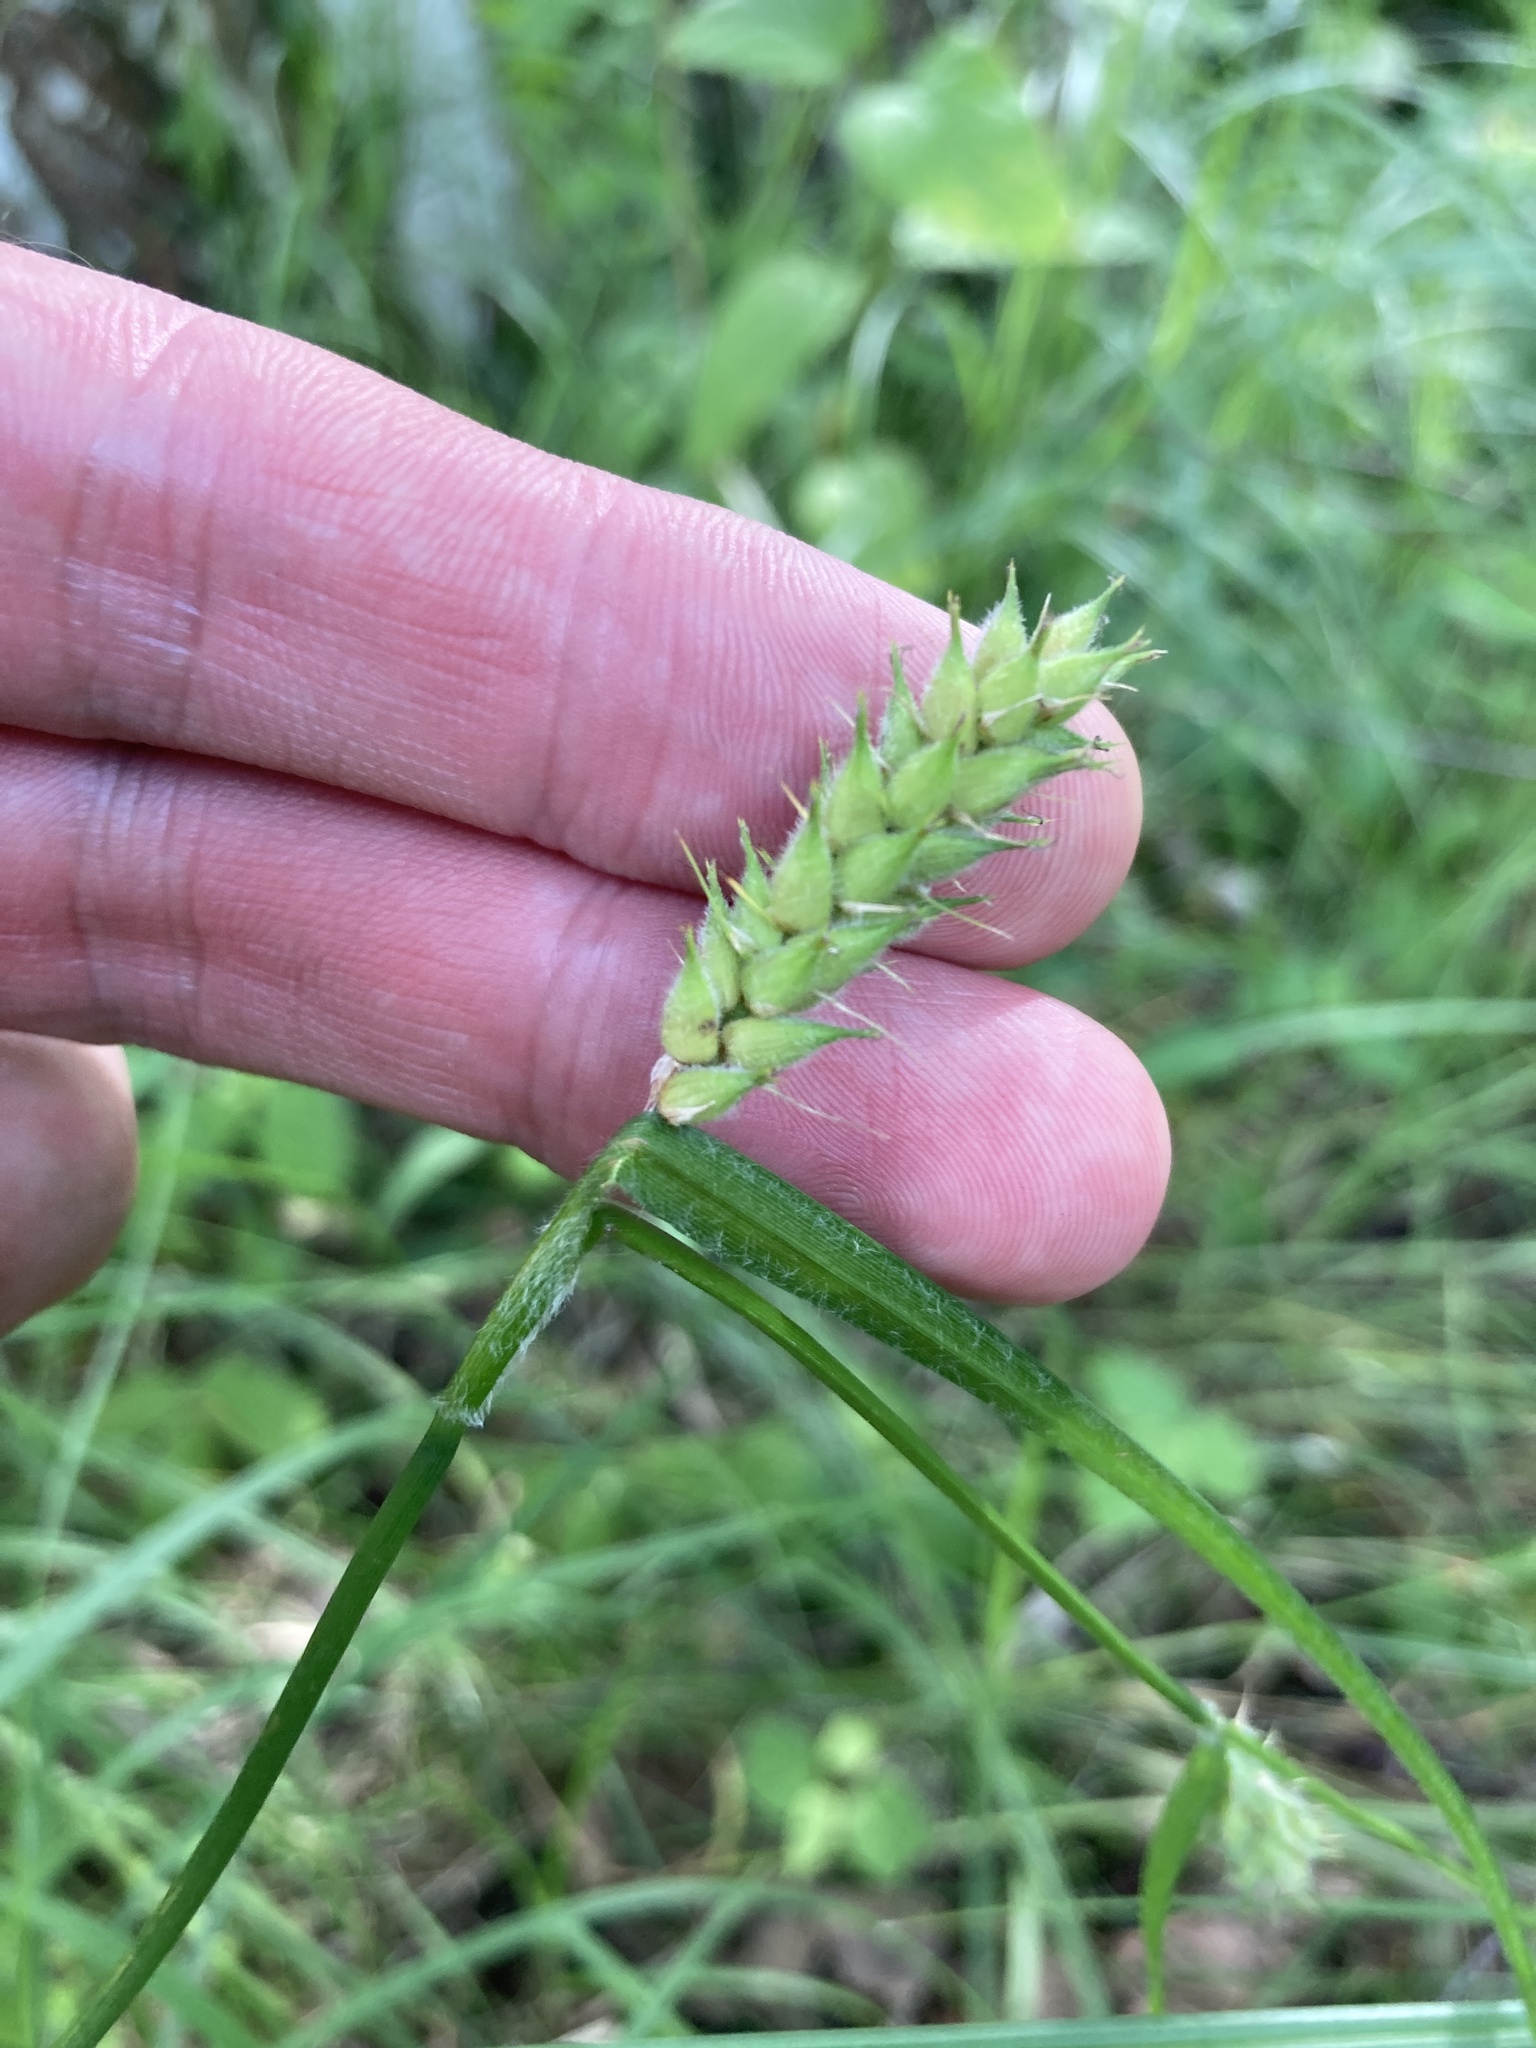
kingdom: Plantae
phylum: Tracheophyta
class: Liliopsida
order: Poales
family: Cyperaceae
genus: Carex
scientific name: Carex hirta
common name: Hairy sedge
